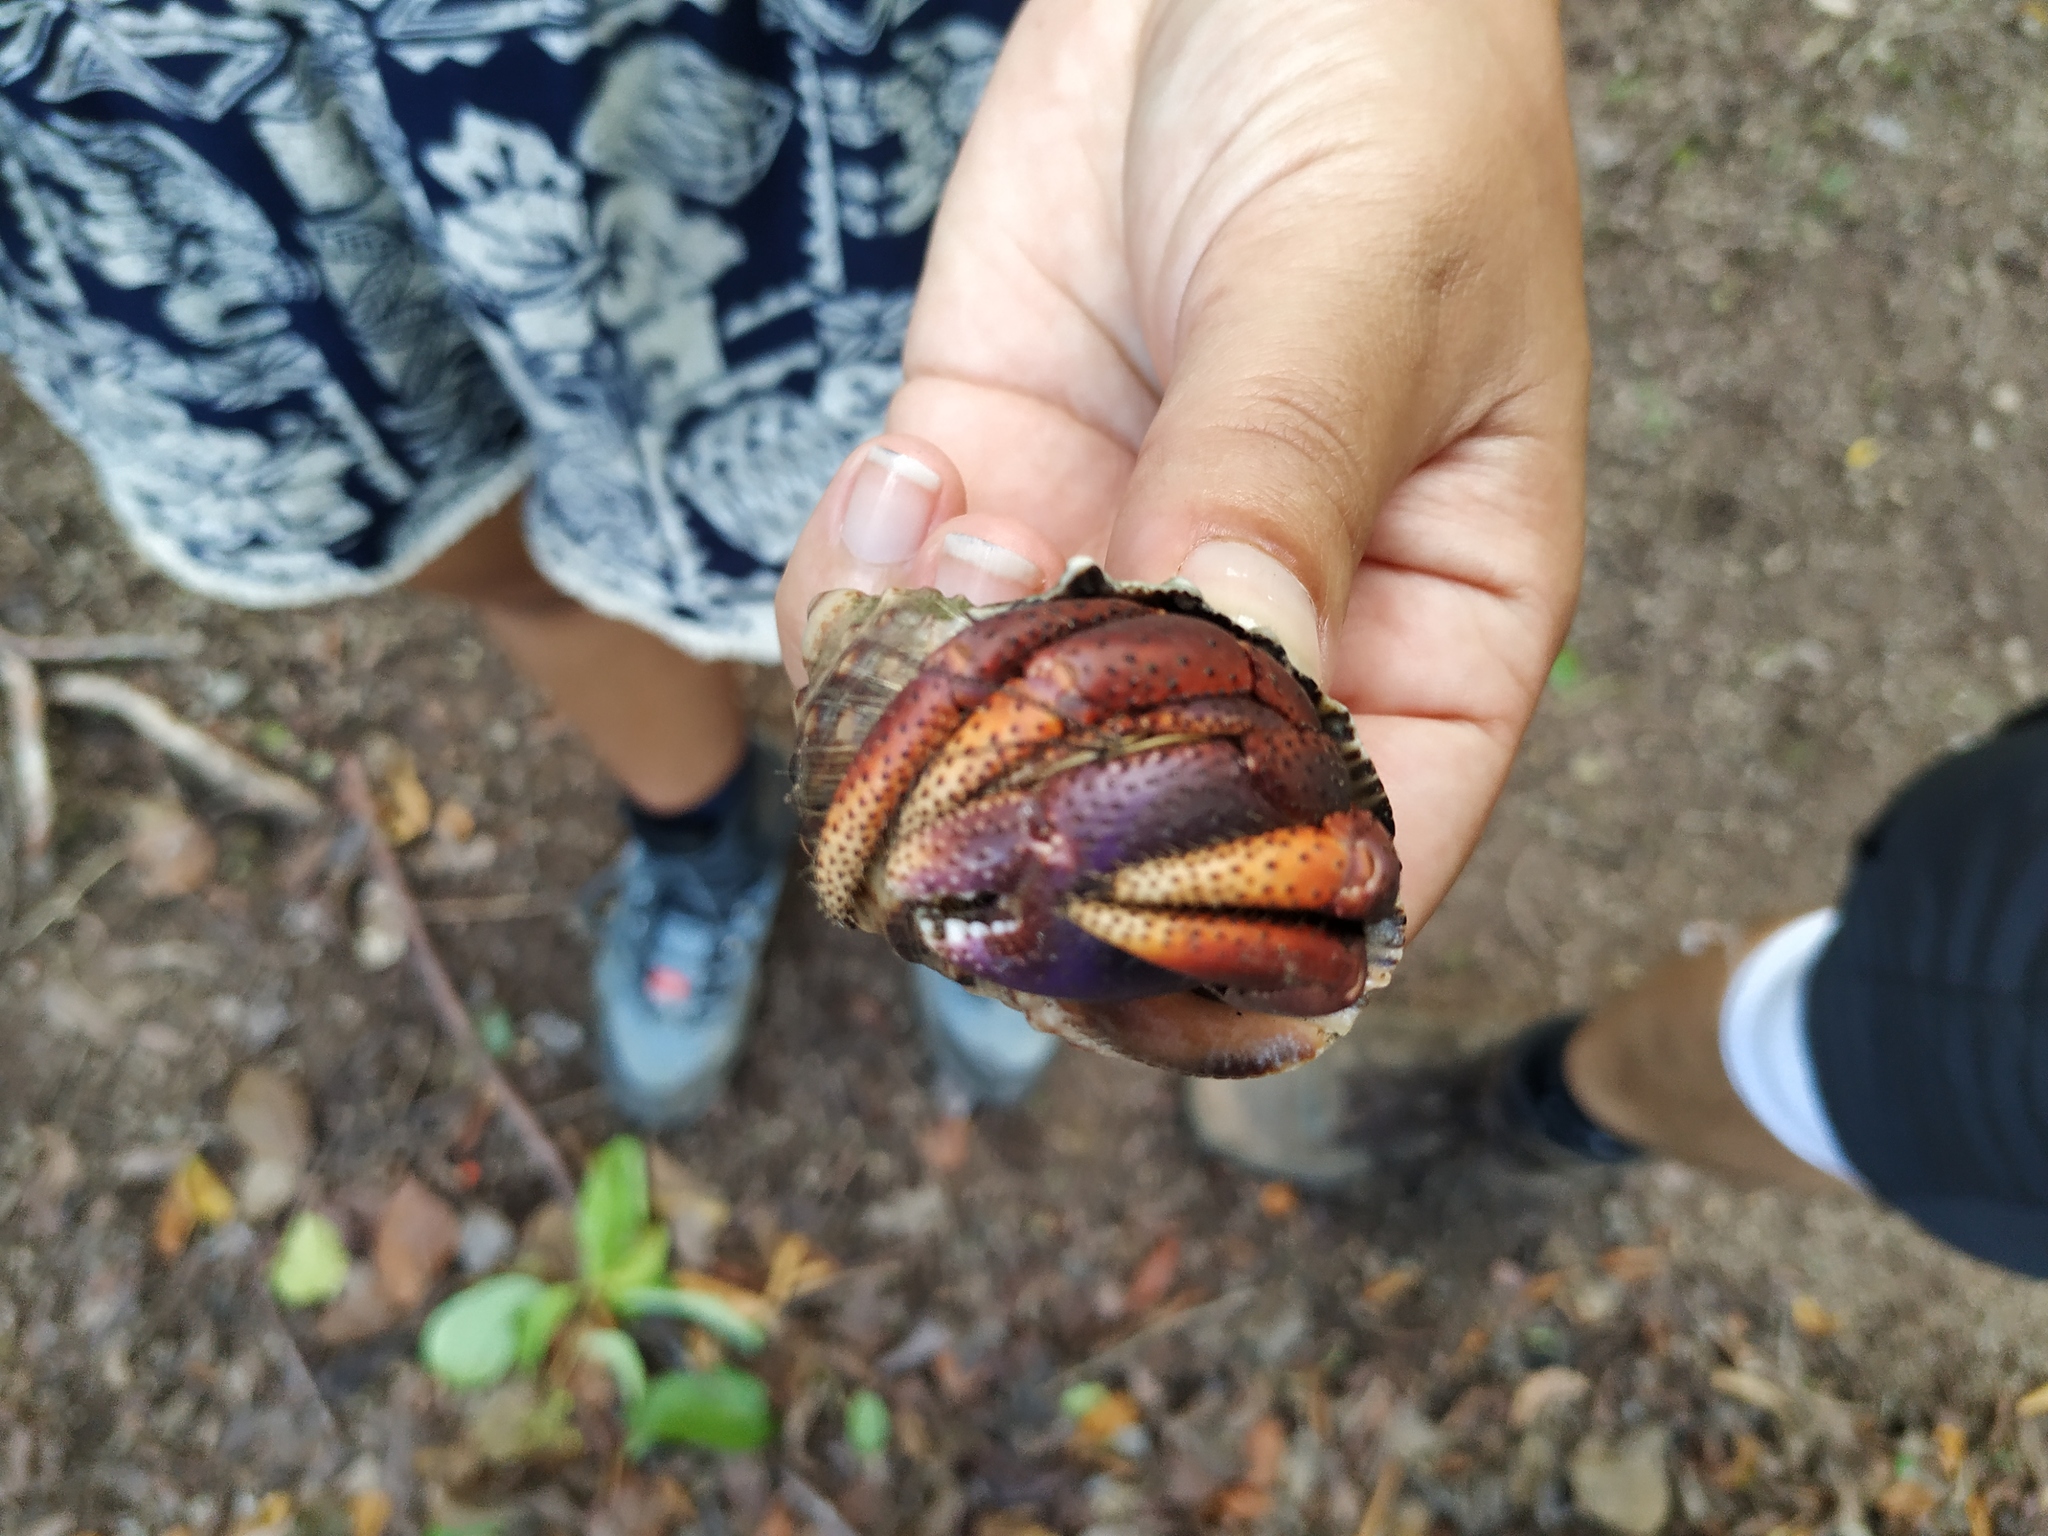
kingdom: Animalia
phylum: Arthropoda
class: Malacostraca
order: Decapoda
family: Coenobitidae
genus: Coenobita
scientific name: Coenobita clypeatus
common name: Caribbean hermit crab
